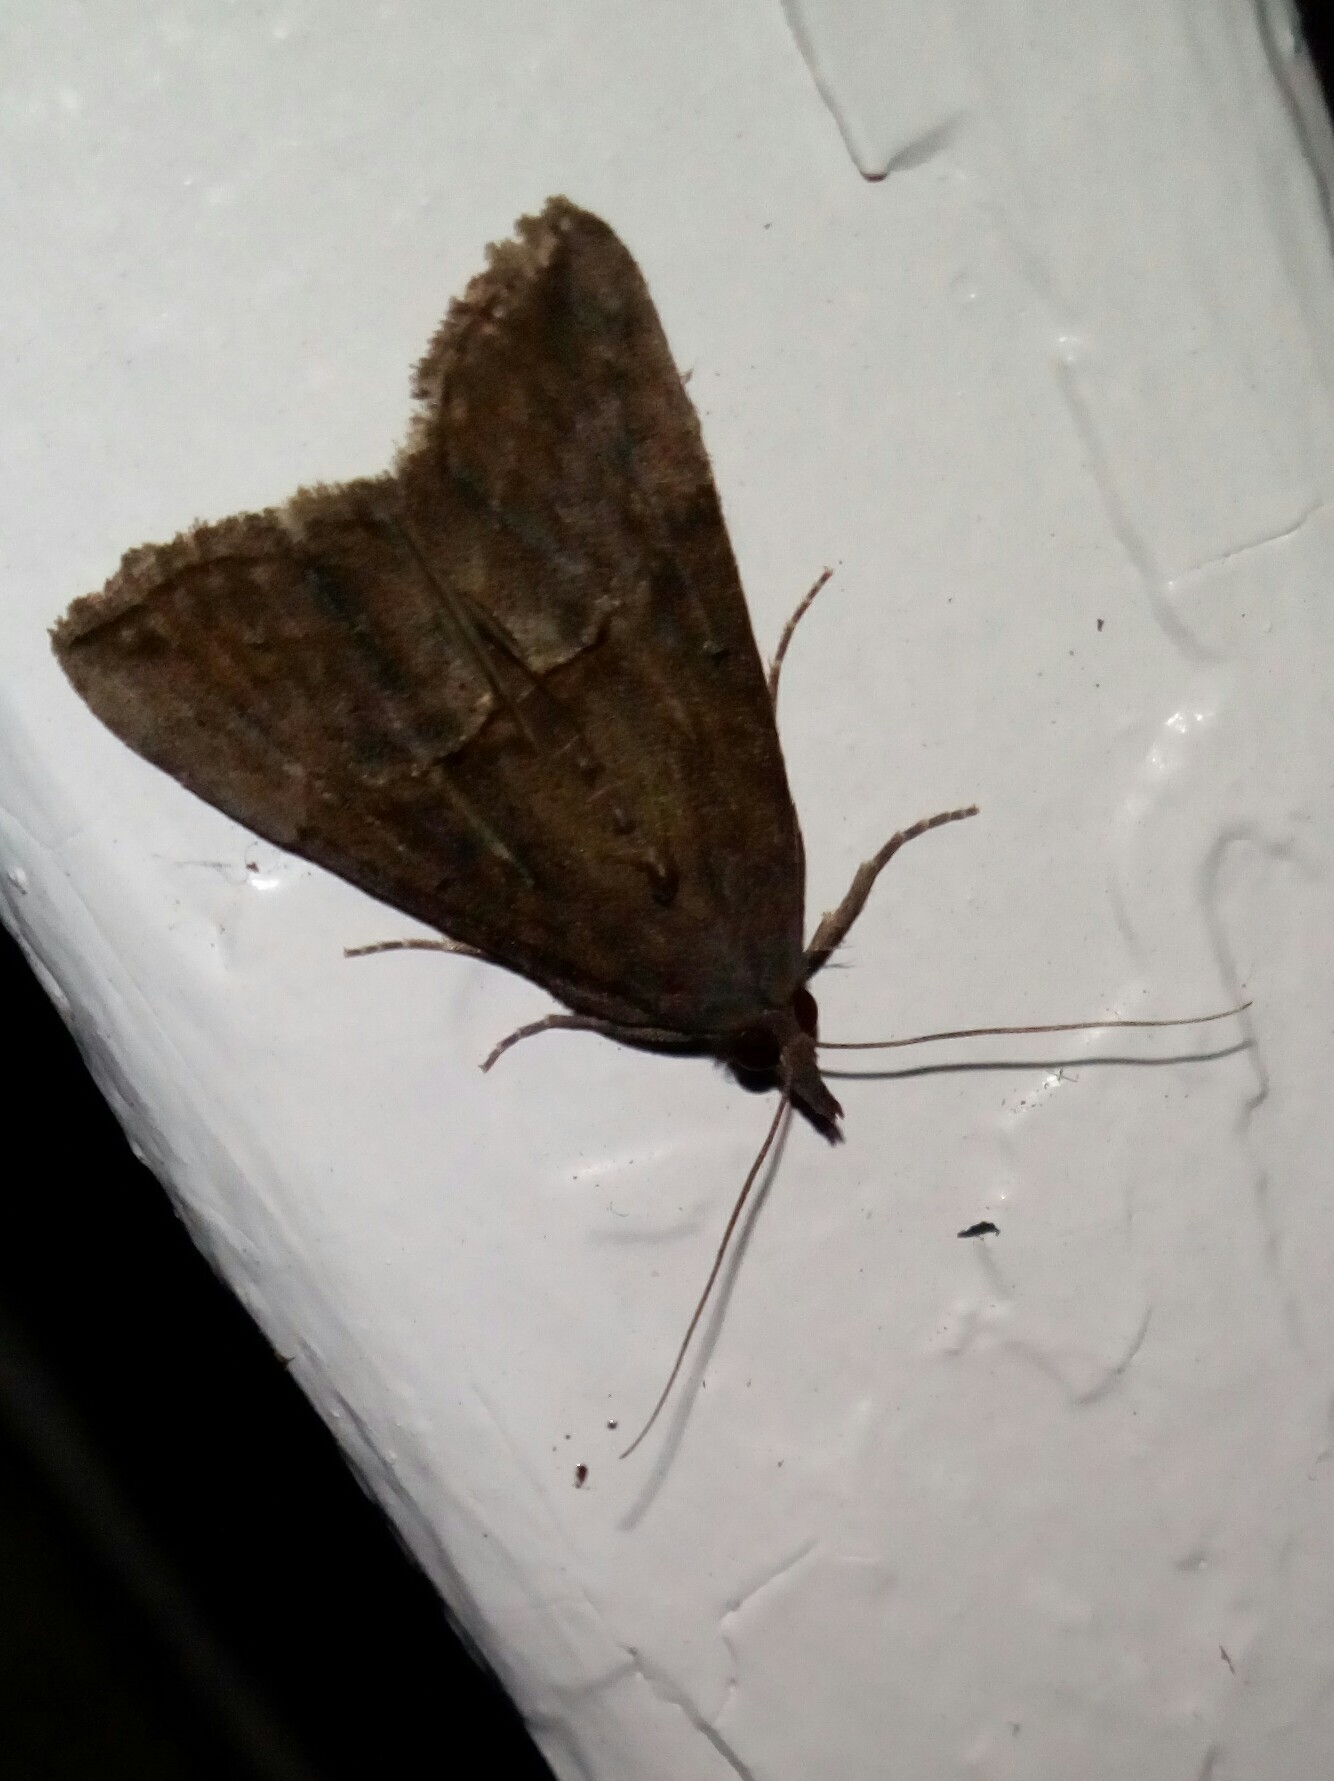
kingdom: Animalia
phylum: Arthropoda
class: Insecta
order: Lepidoptera
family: Erebidae
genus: Hypena
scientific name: Hypena scabra
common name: Green cloverworm
